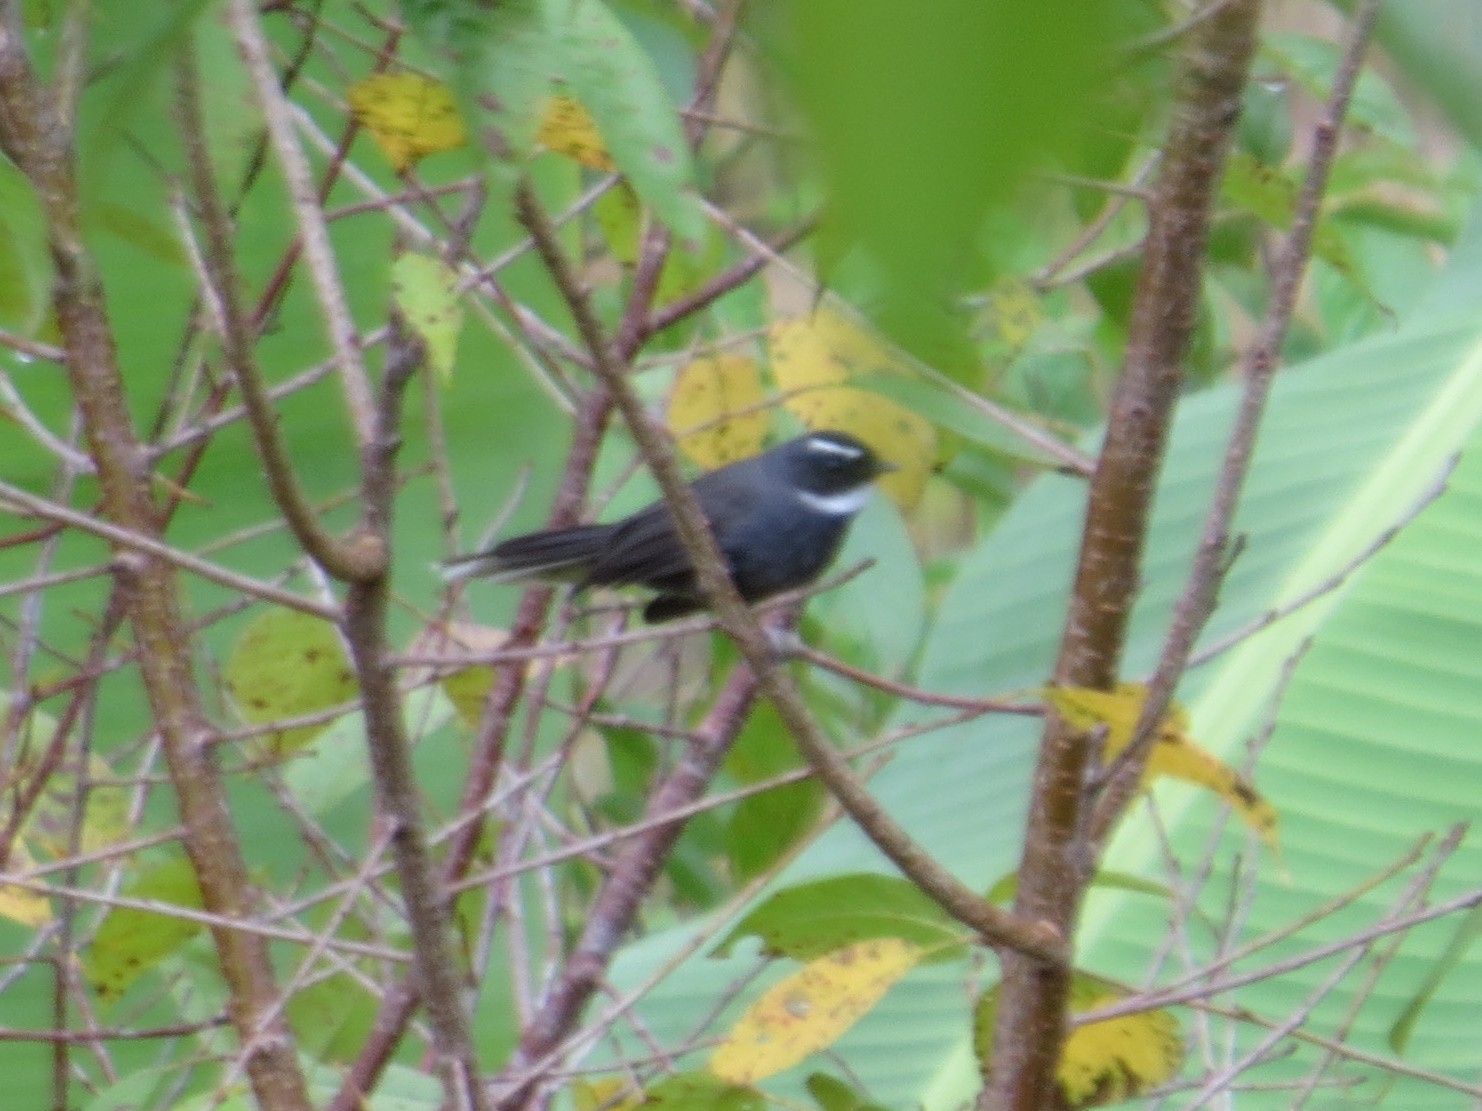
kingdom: Animalia
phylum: Chordata
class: Aves
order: Passeriformes
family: Rhipiduridae
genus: Rhipidura
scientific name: Rhipidura albicollis
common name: White-throated fantail
